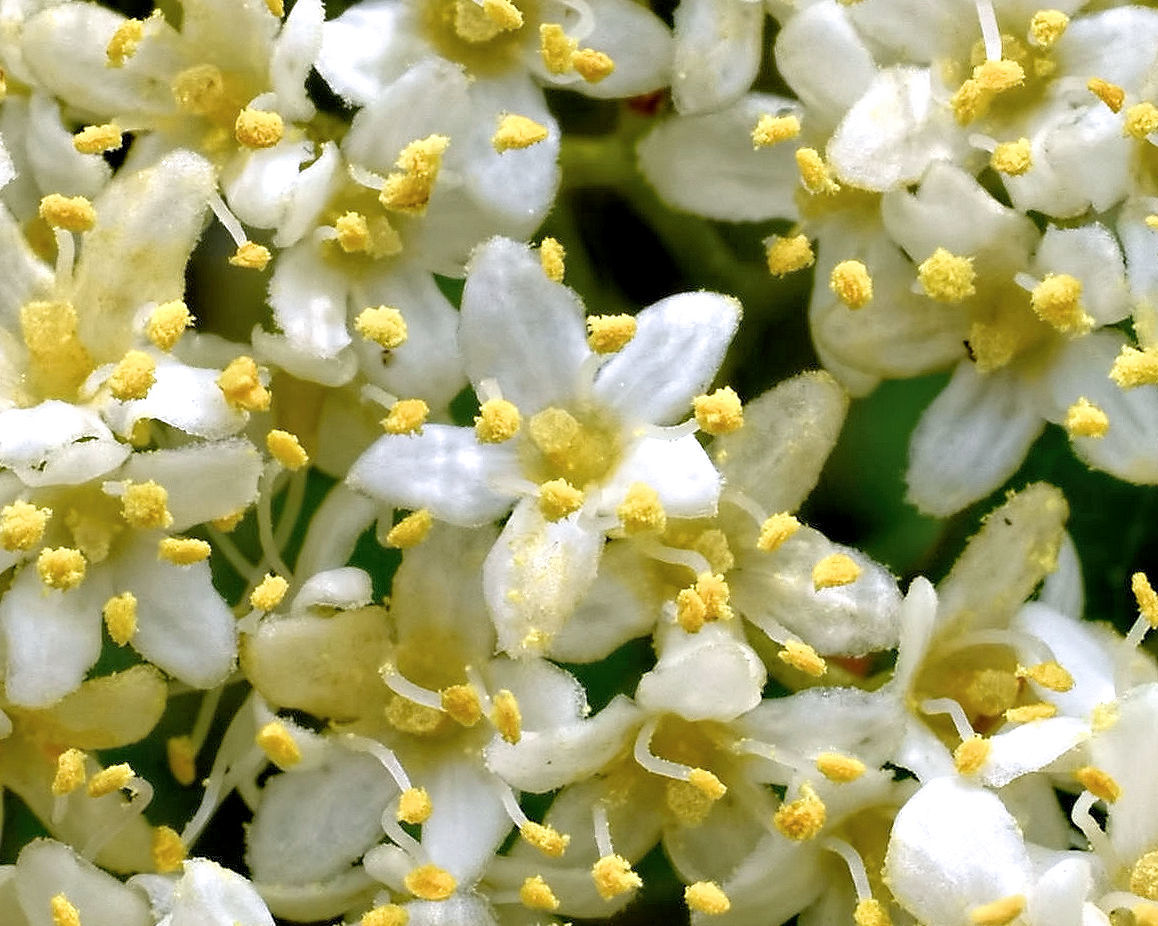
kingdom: Plantae
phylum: Tracheophyta
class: Magnoliopsida
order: Dipsacales
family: Viburnaceae
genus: Viburnum
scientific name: Viburnum lentago
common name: Black haw
